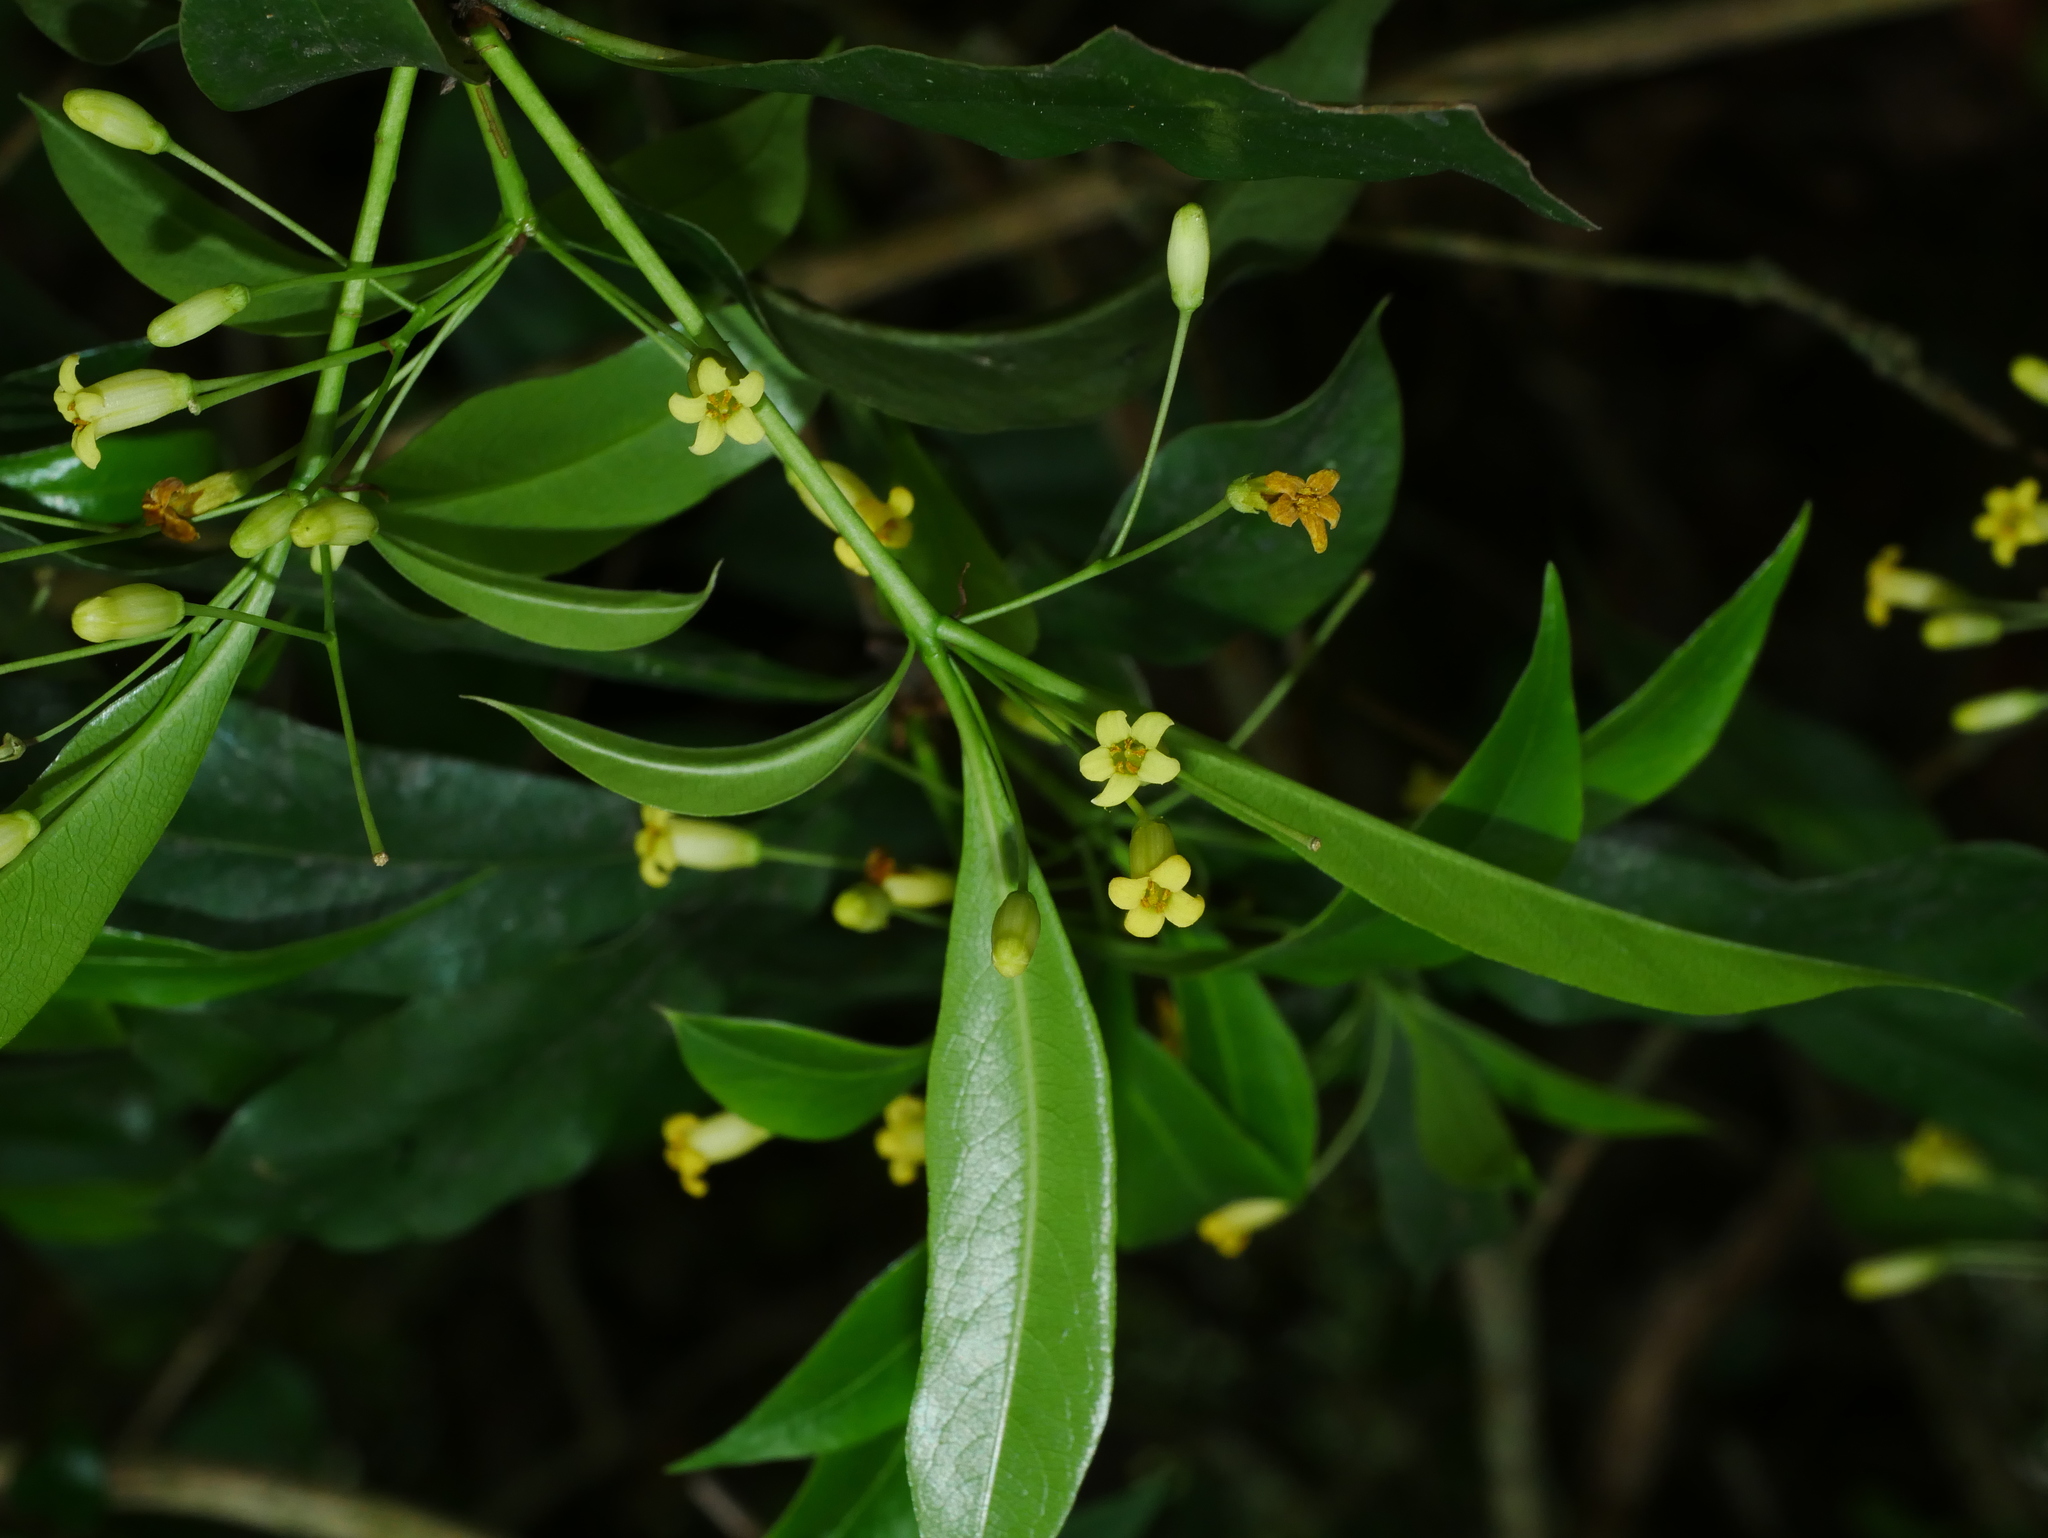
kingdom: Plantae
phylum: Tracheophyta
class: Magnoliopsida
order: Apiales
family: Pittosporaceae
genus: Pittosporum
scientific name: Pittosporum illicioides
